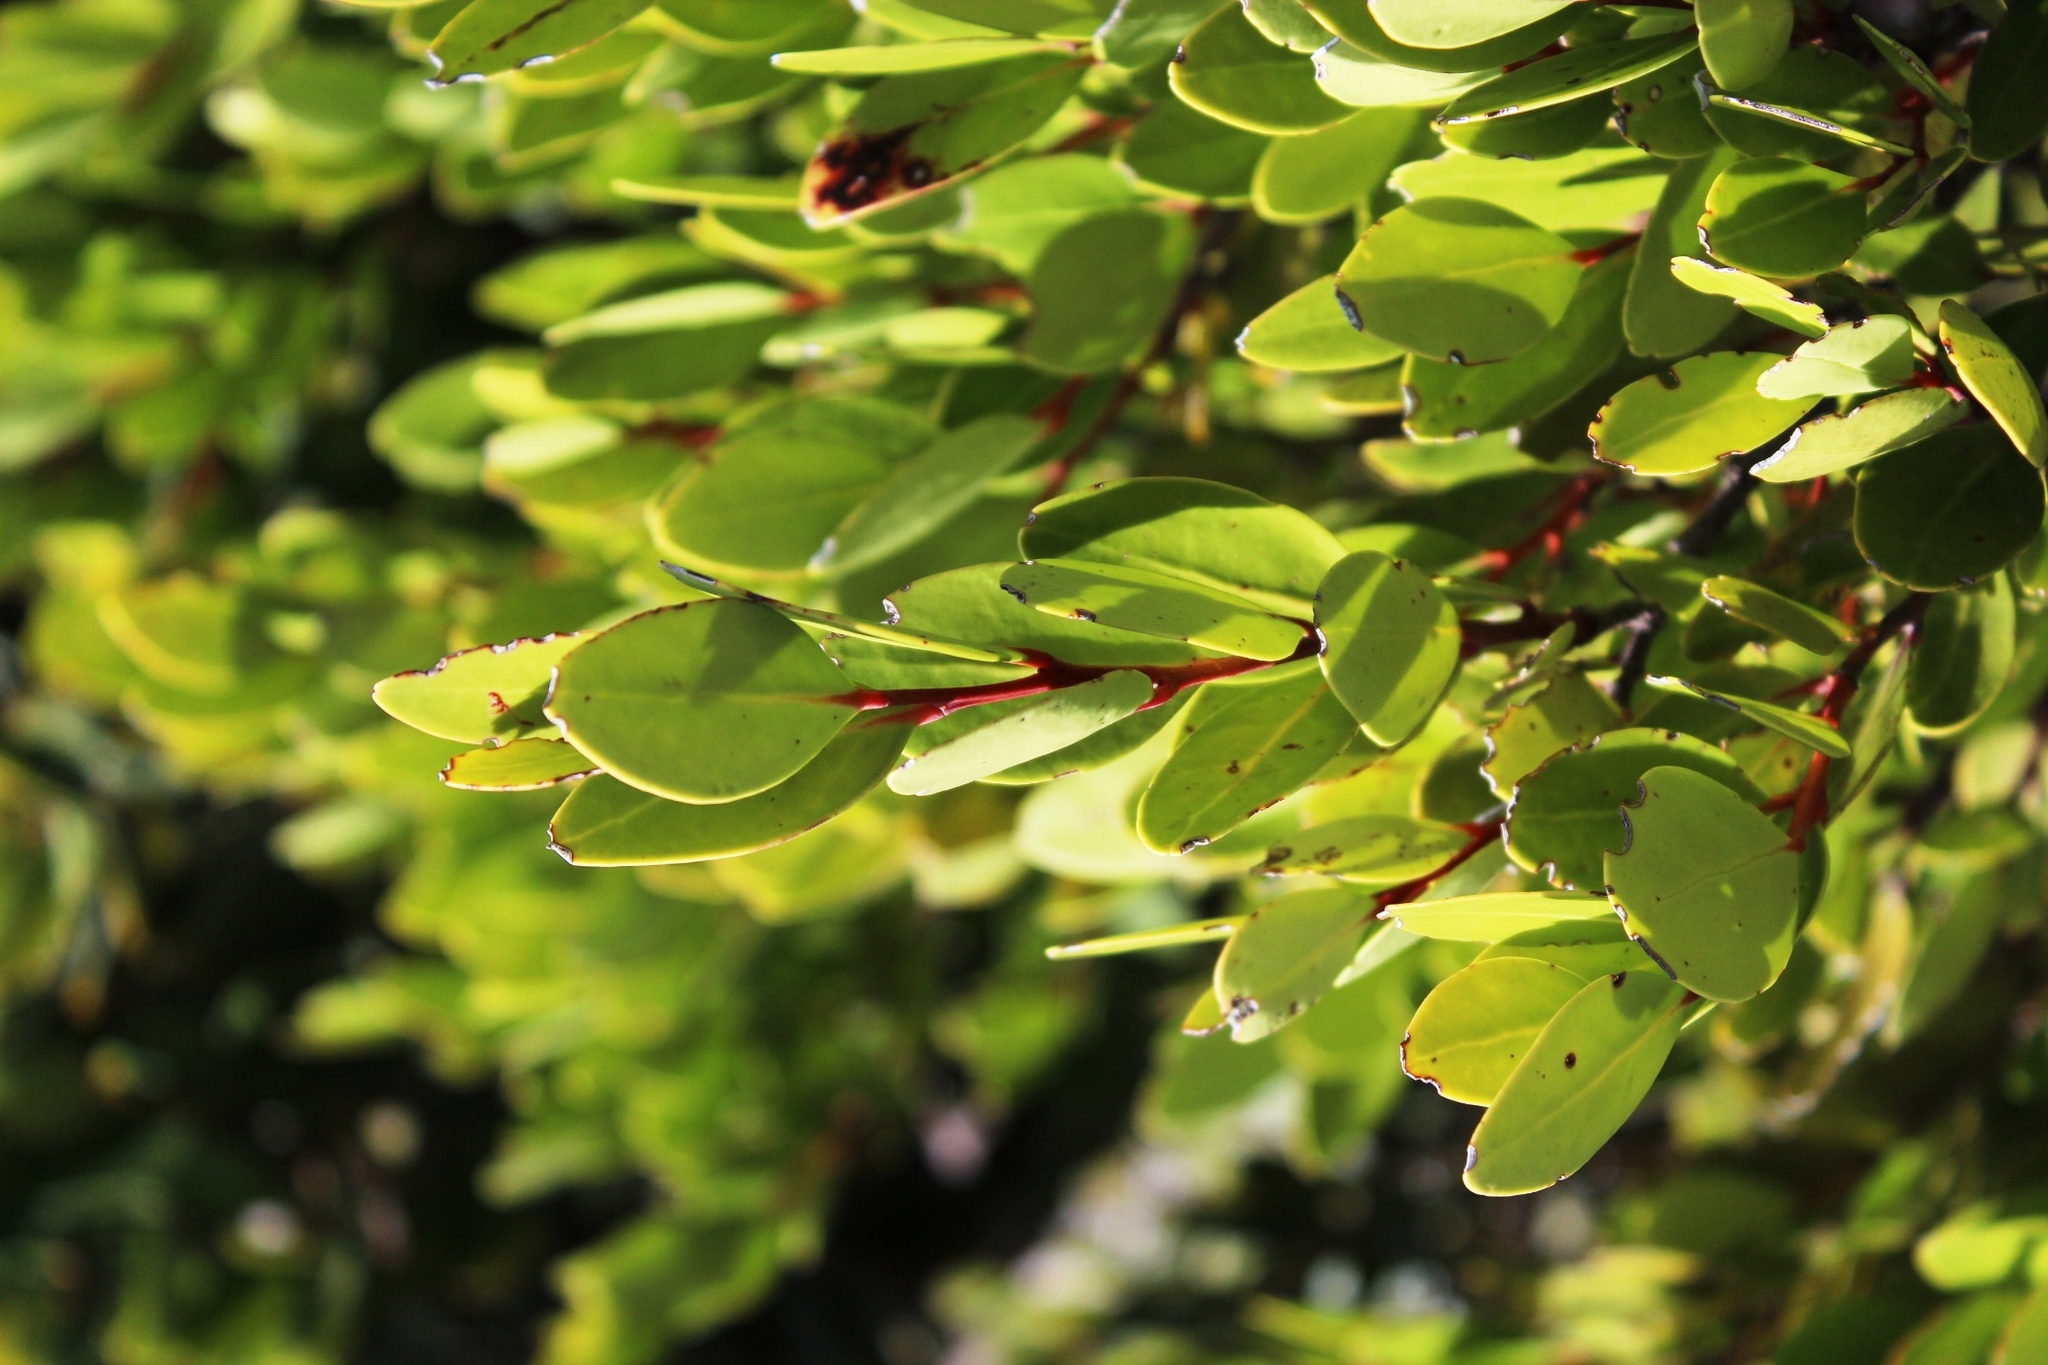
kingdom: Plantae
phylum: Tracheophyta
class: Magnoliopsida
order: Celastrales
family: Celastraceae
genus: Pterocelastrus
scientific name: Pterocelastrus tricuspidatus
